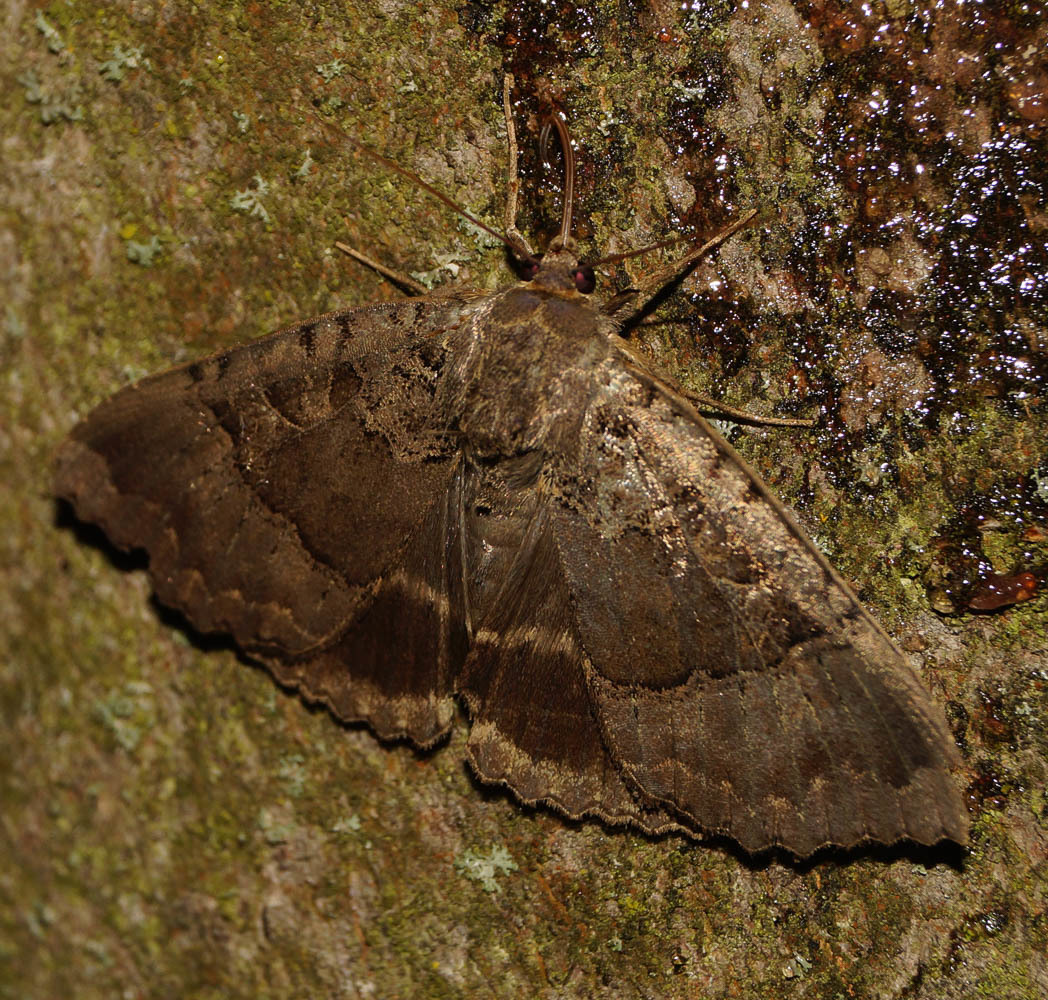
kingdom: Animalia
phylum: Arthropoda
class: Insecta
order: Lepidoptera
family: Noctuidae
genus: Mormo
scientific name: Mormo maura
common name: Old lady
